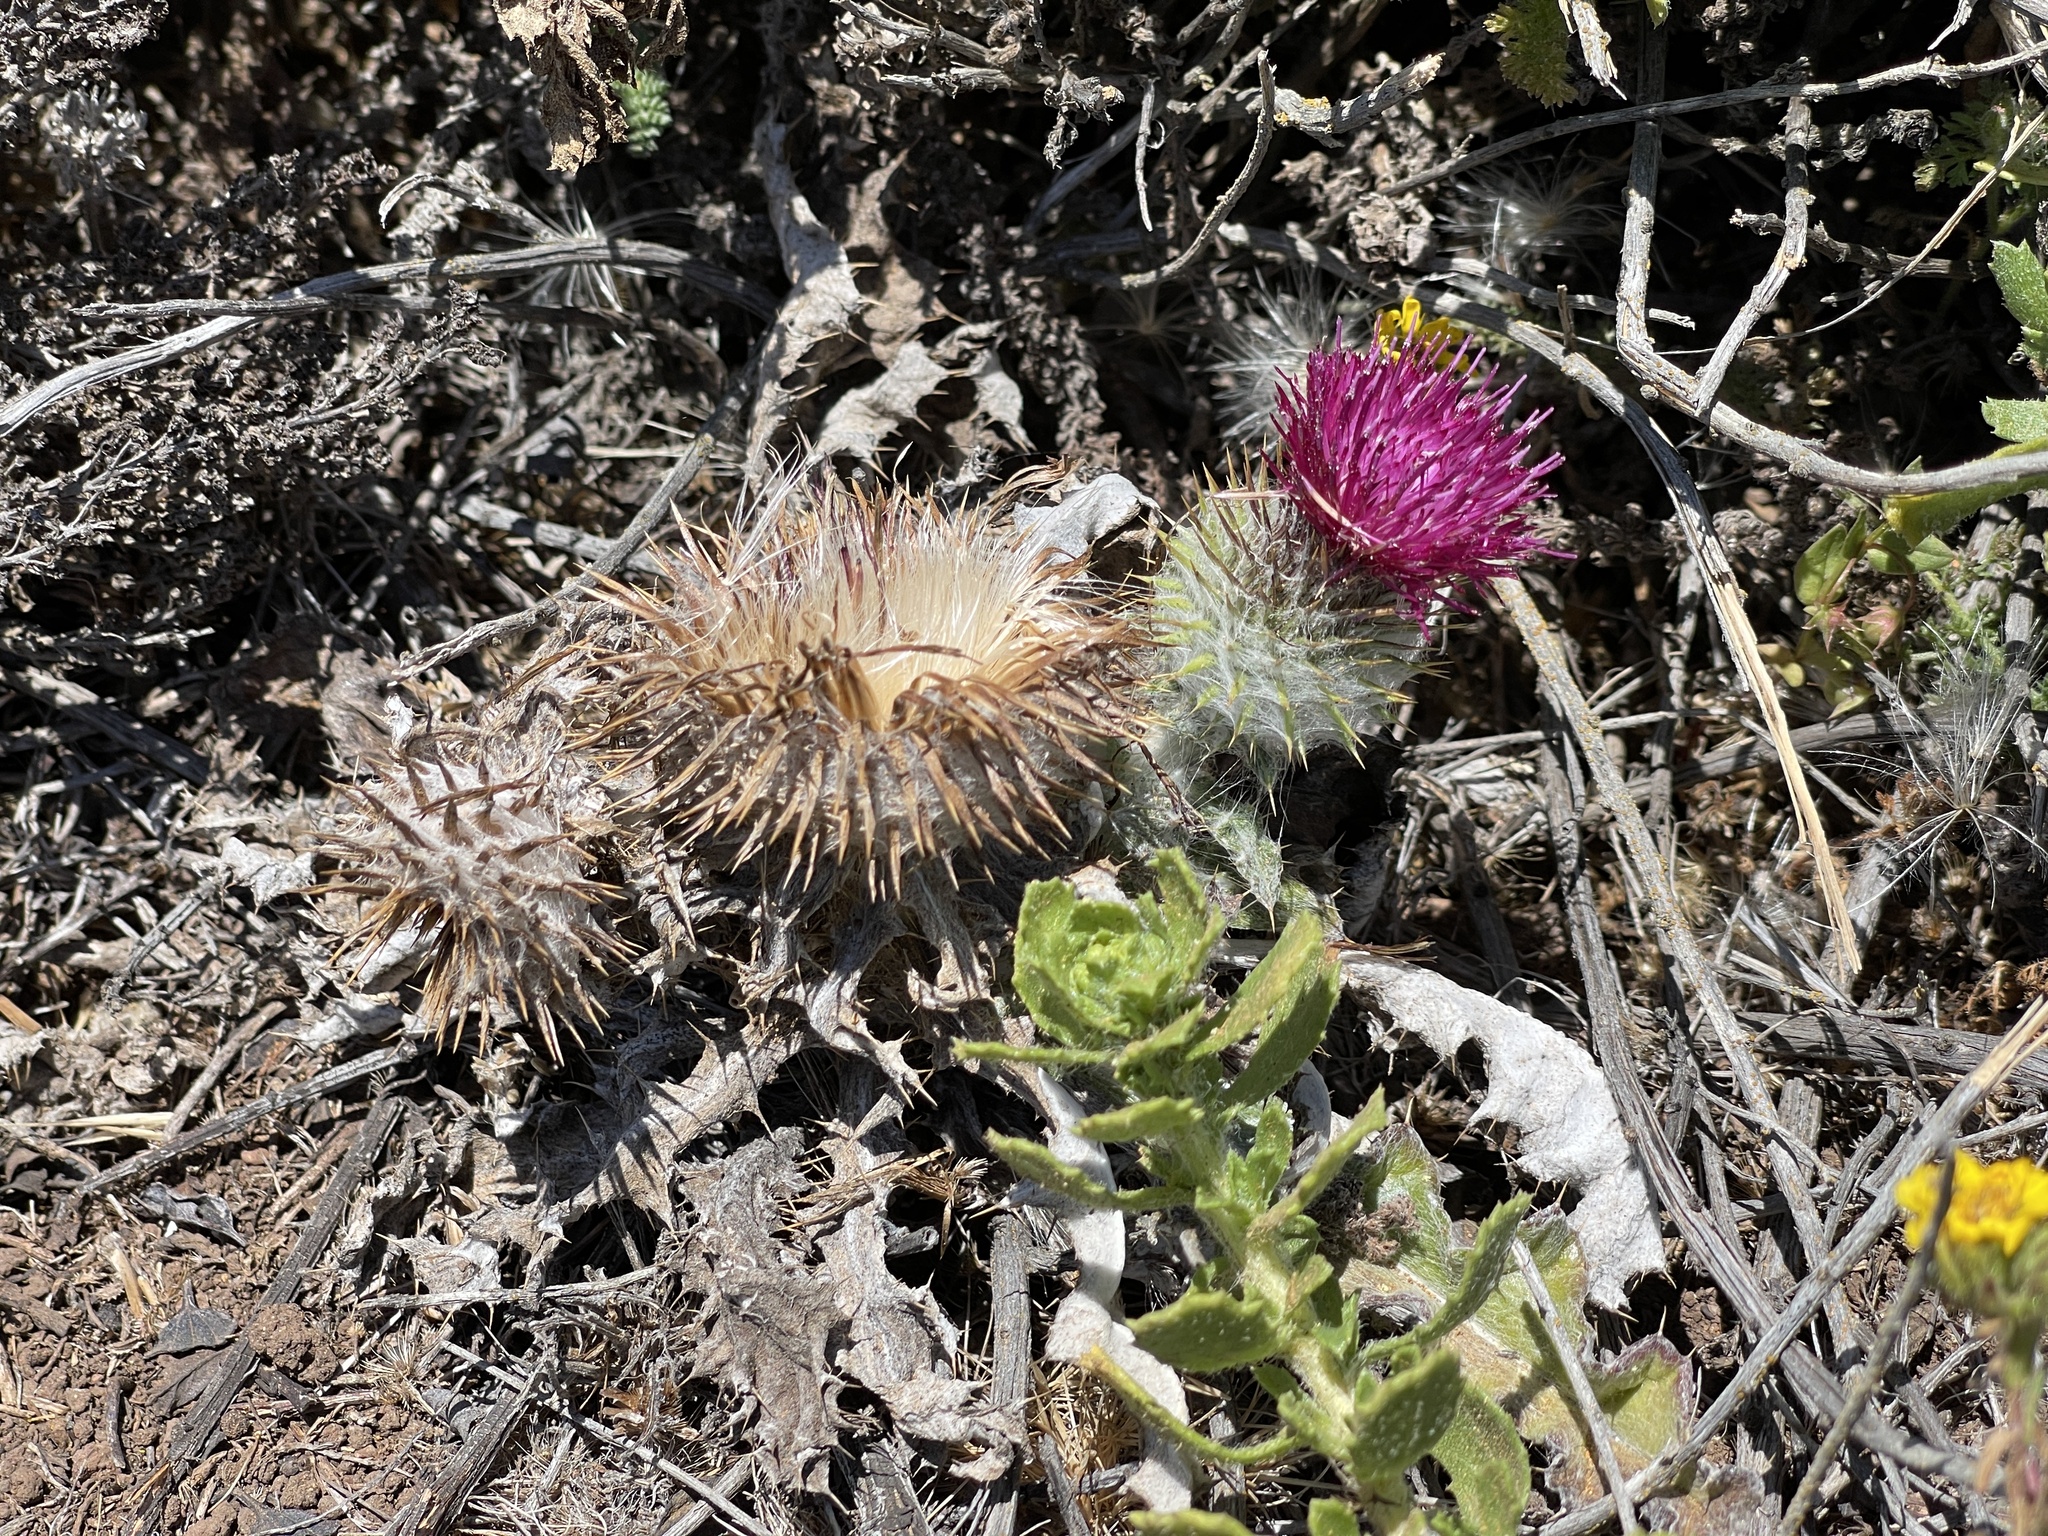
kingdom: Plantae
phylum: Tracheophyta
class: Magnoliopsida
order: Asterales
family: Asteraceae
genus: Cirsium
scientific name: Cirsium occidentale
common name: Western thistle
